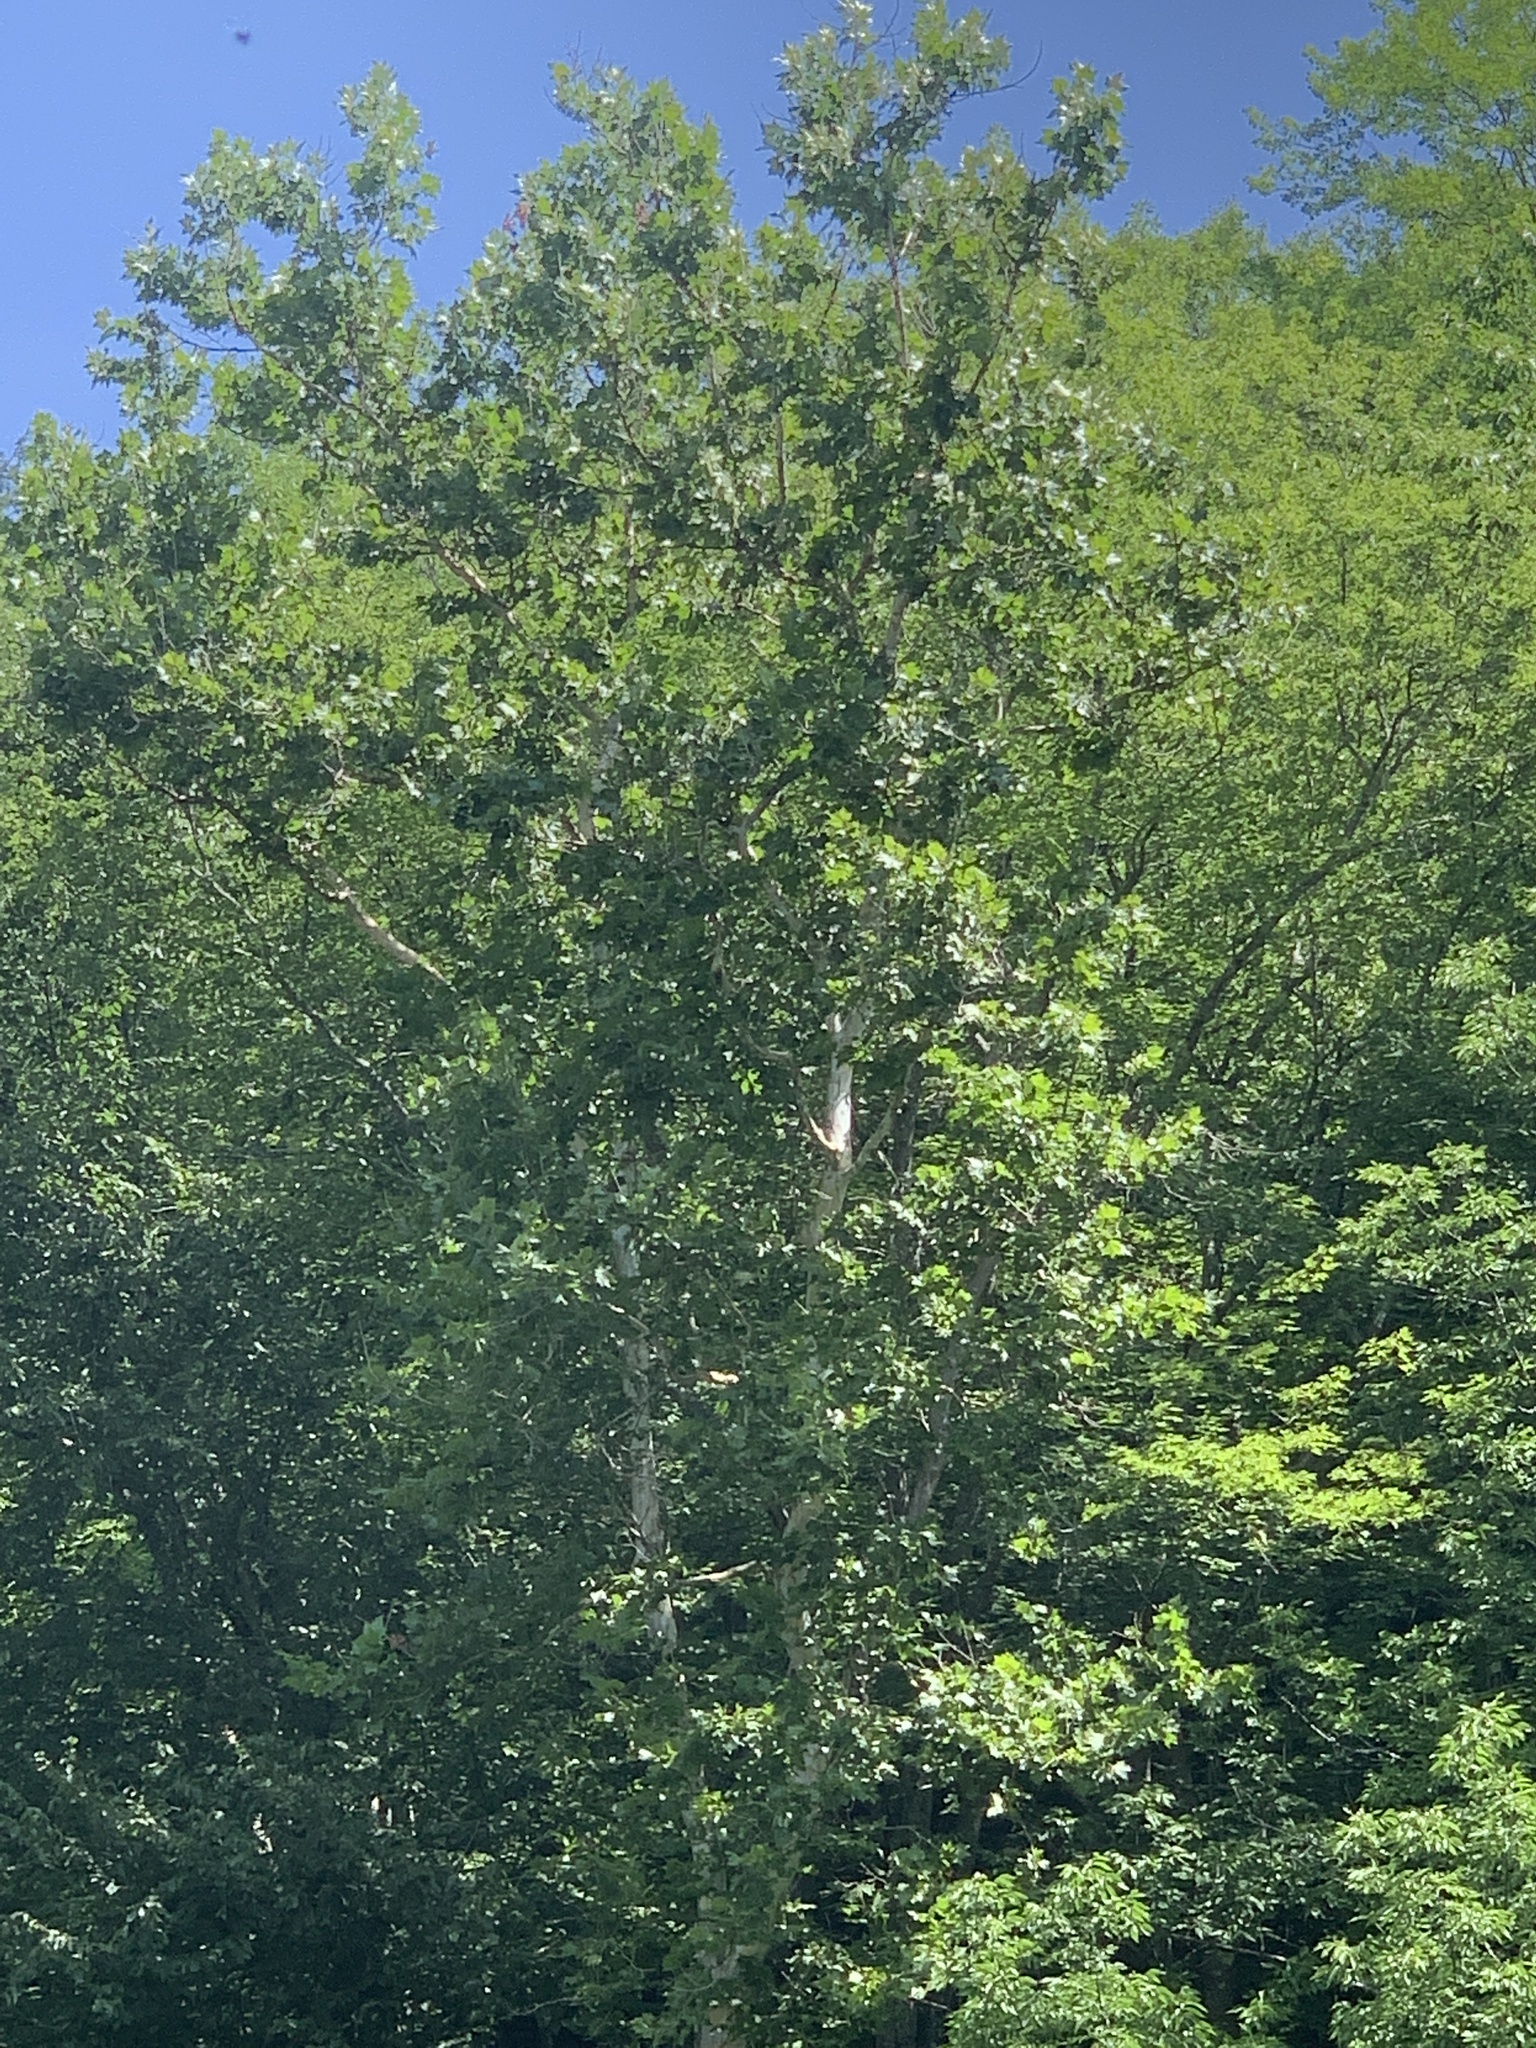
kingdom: Plantae
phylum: Tracheophyta
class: Magnoliopsida
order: Proteales
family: Platanaceae
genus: Platanus
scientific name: Platanus occidentalis
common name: American sycamore
